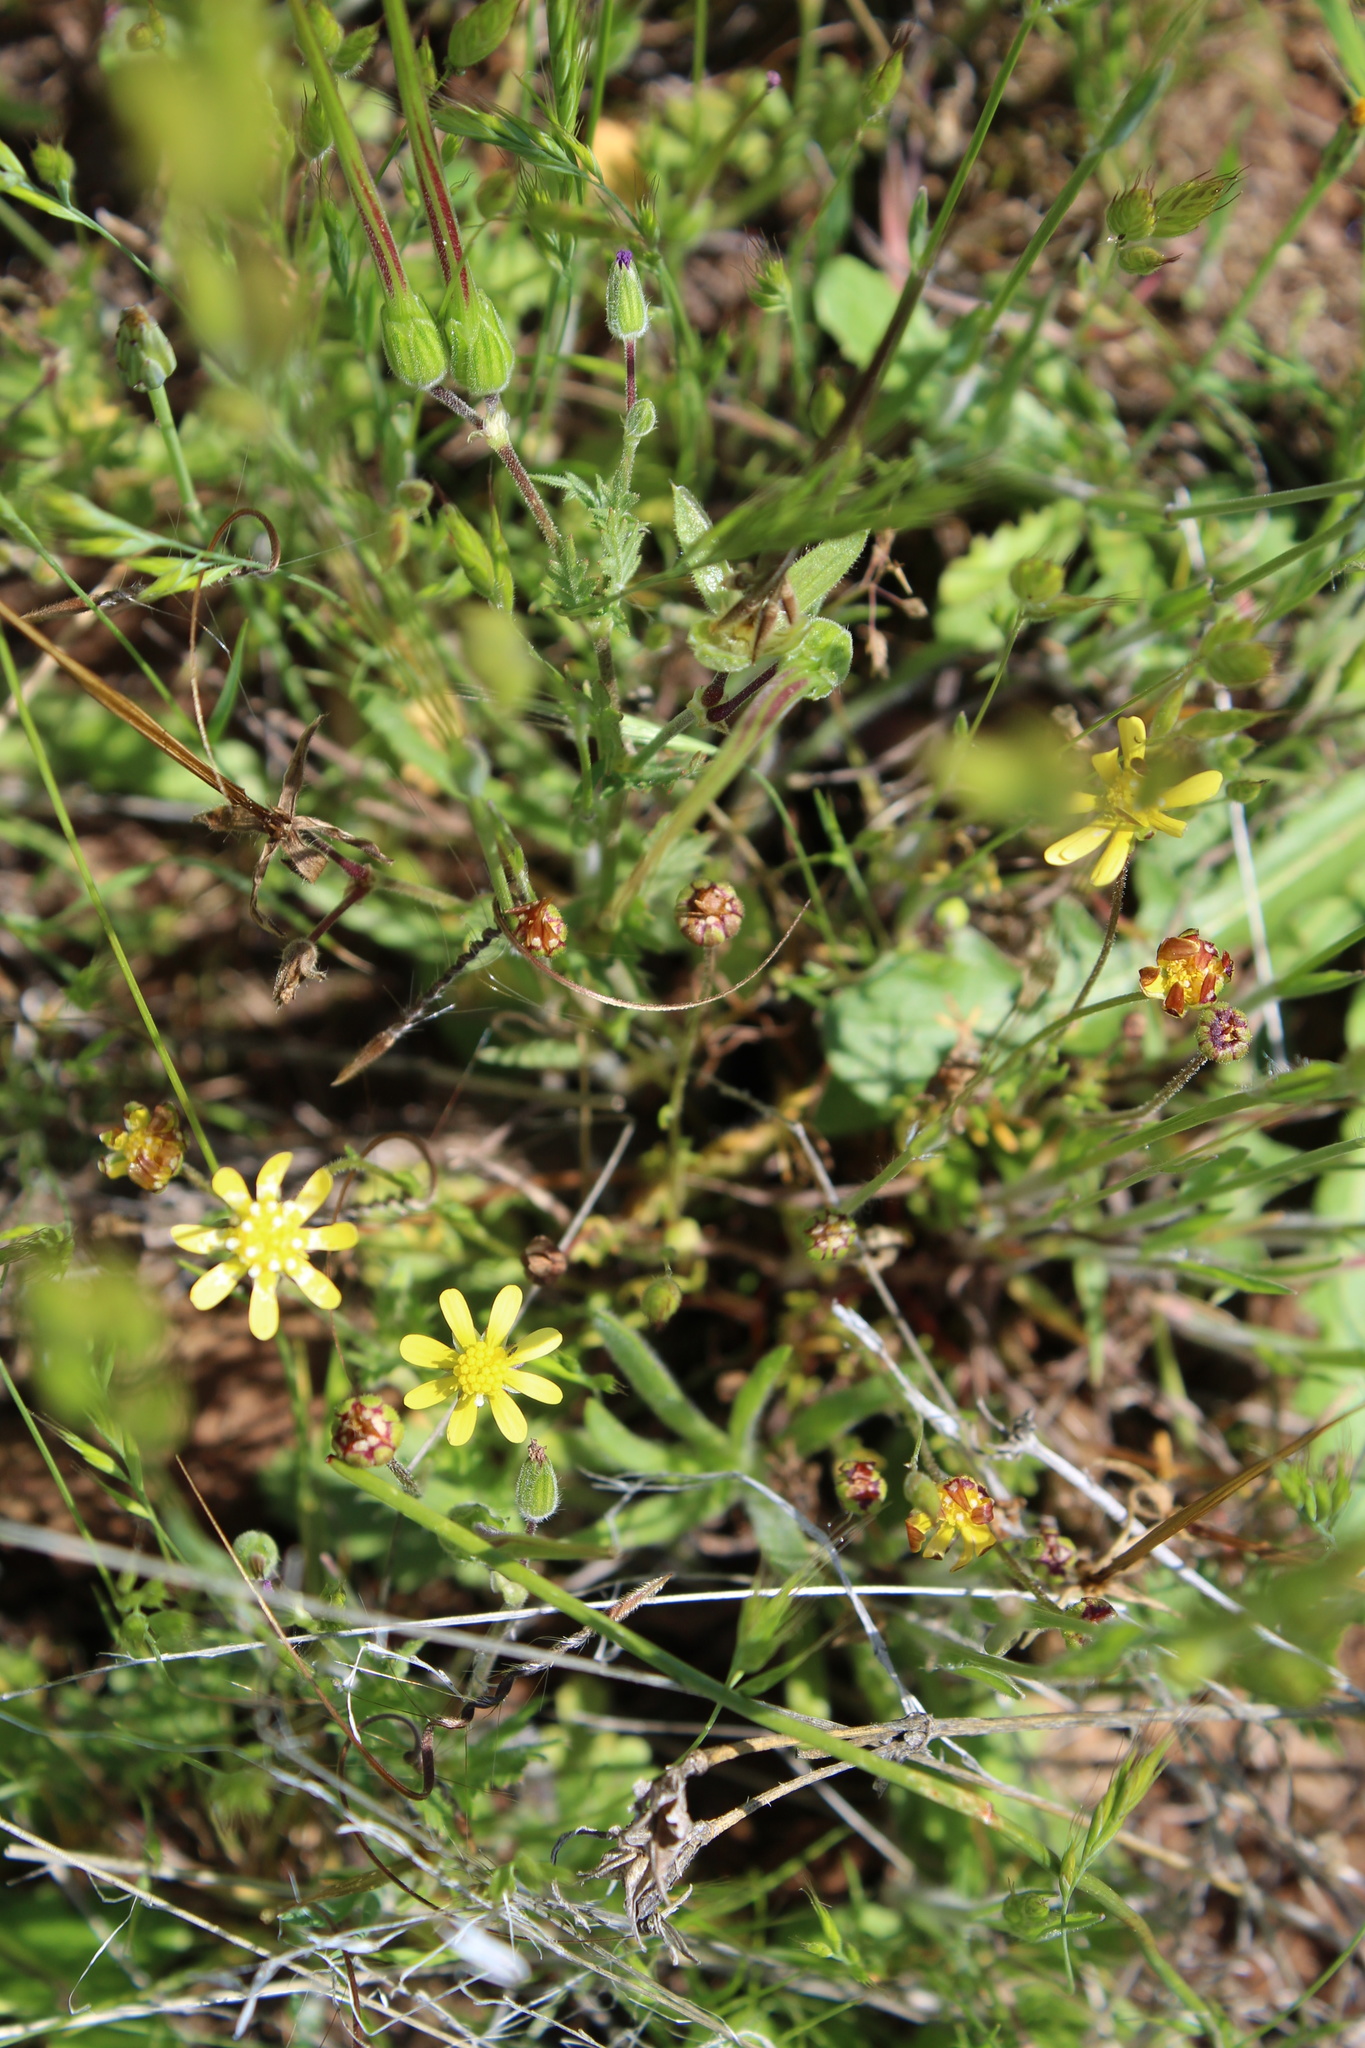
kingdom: Plantae
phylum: Tracheophyta
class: Magnoliopsida
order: Asterales
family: Asteraceae
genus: Blennosperma
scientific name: Blennosperma nanum
